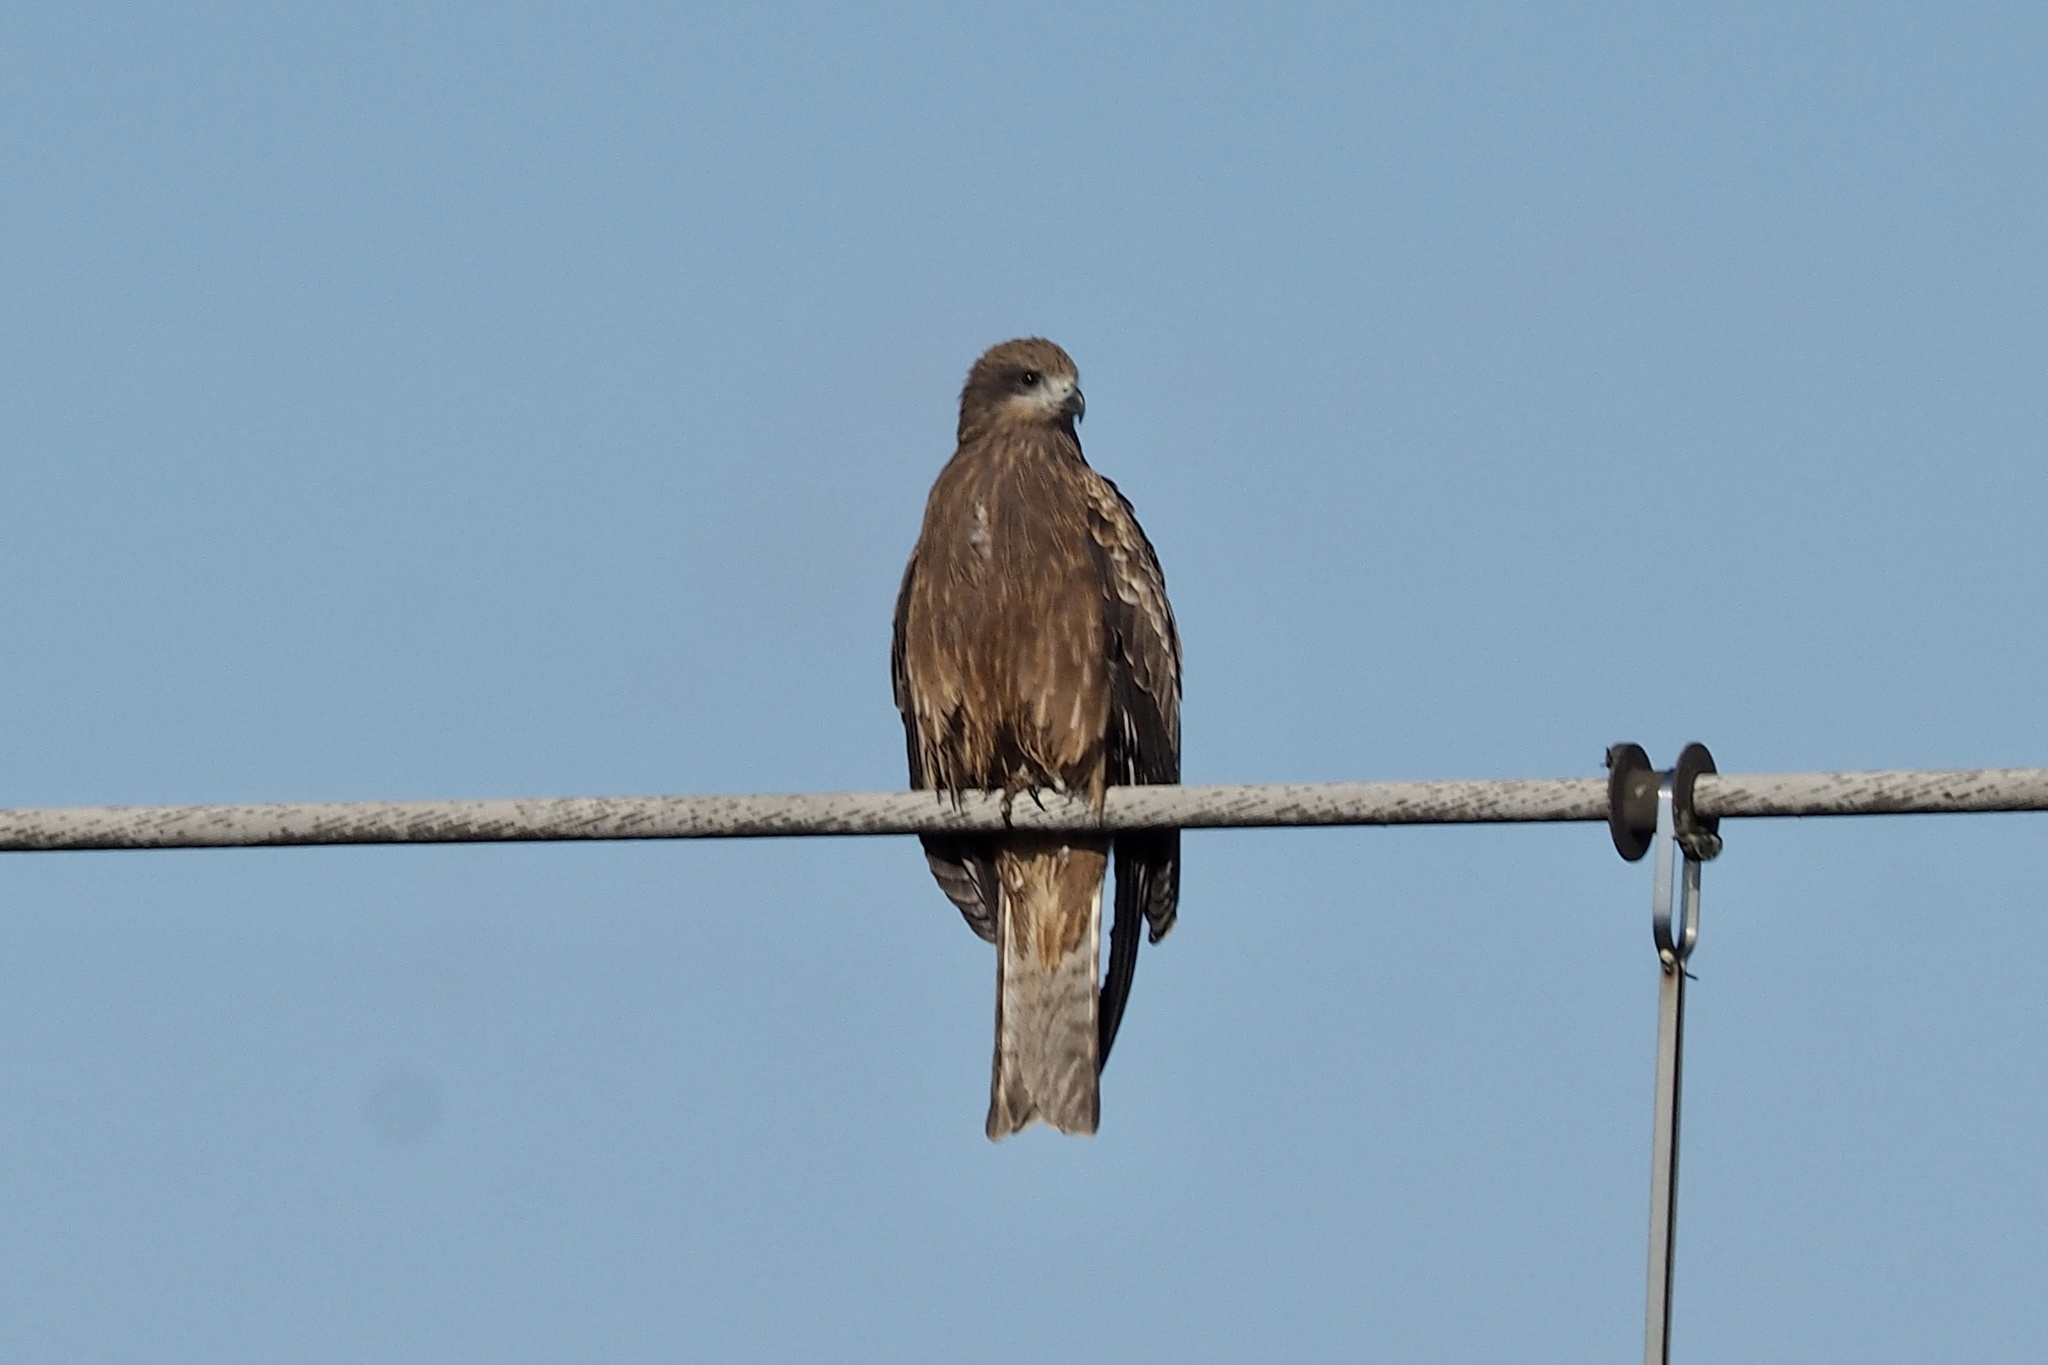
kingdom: Animalia
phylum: Chordata
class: Aves
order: Accipitriformes
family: Accipitridae
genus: Milvus
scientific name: Milvus migrans
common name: Black kite
